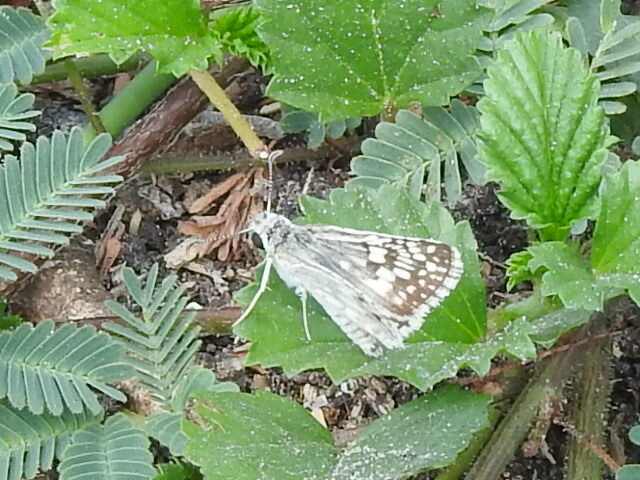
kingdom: Animalia
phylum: Arthropoda
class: Insecta
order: Lepidoptera
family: Hesperiidae
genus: Burnsius
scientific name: Burnsius
